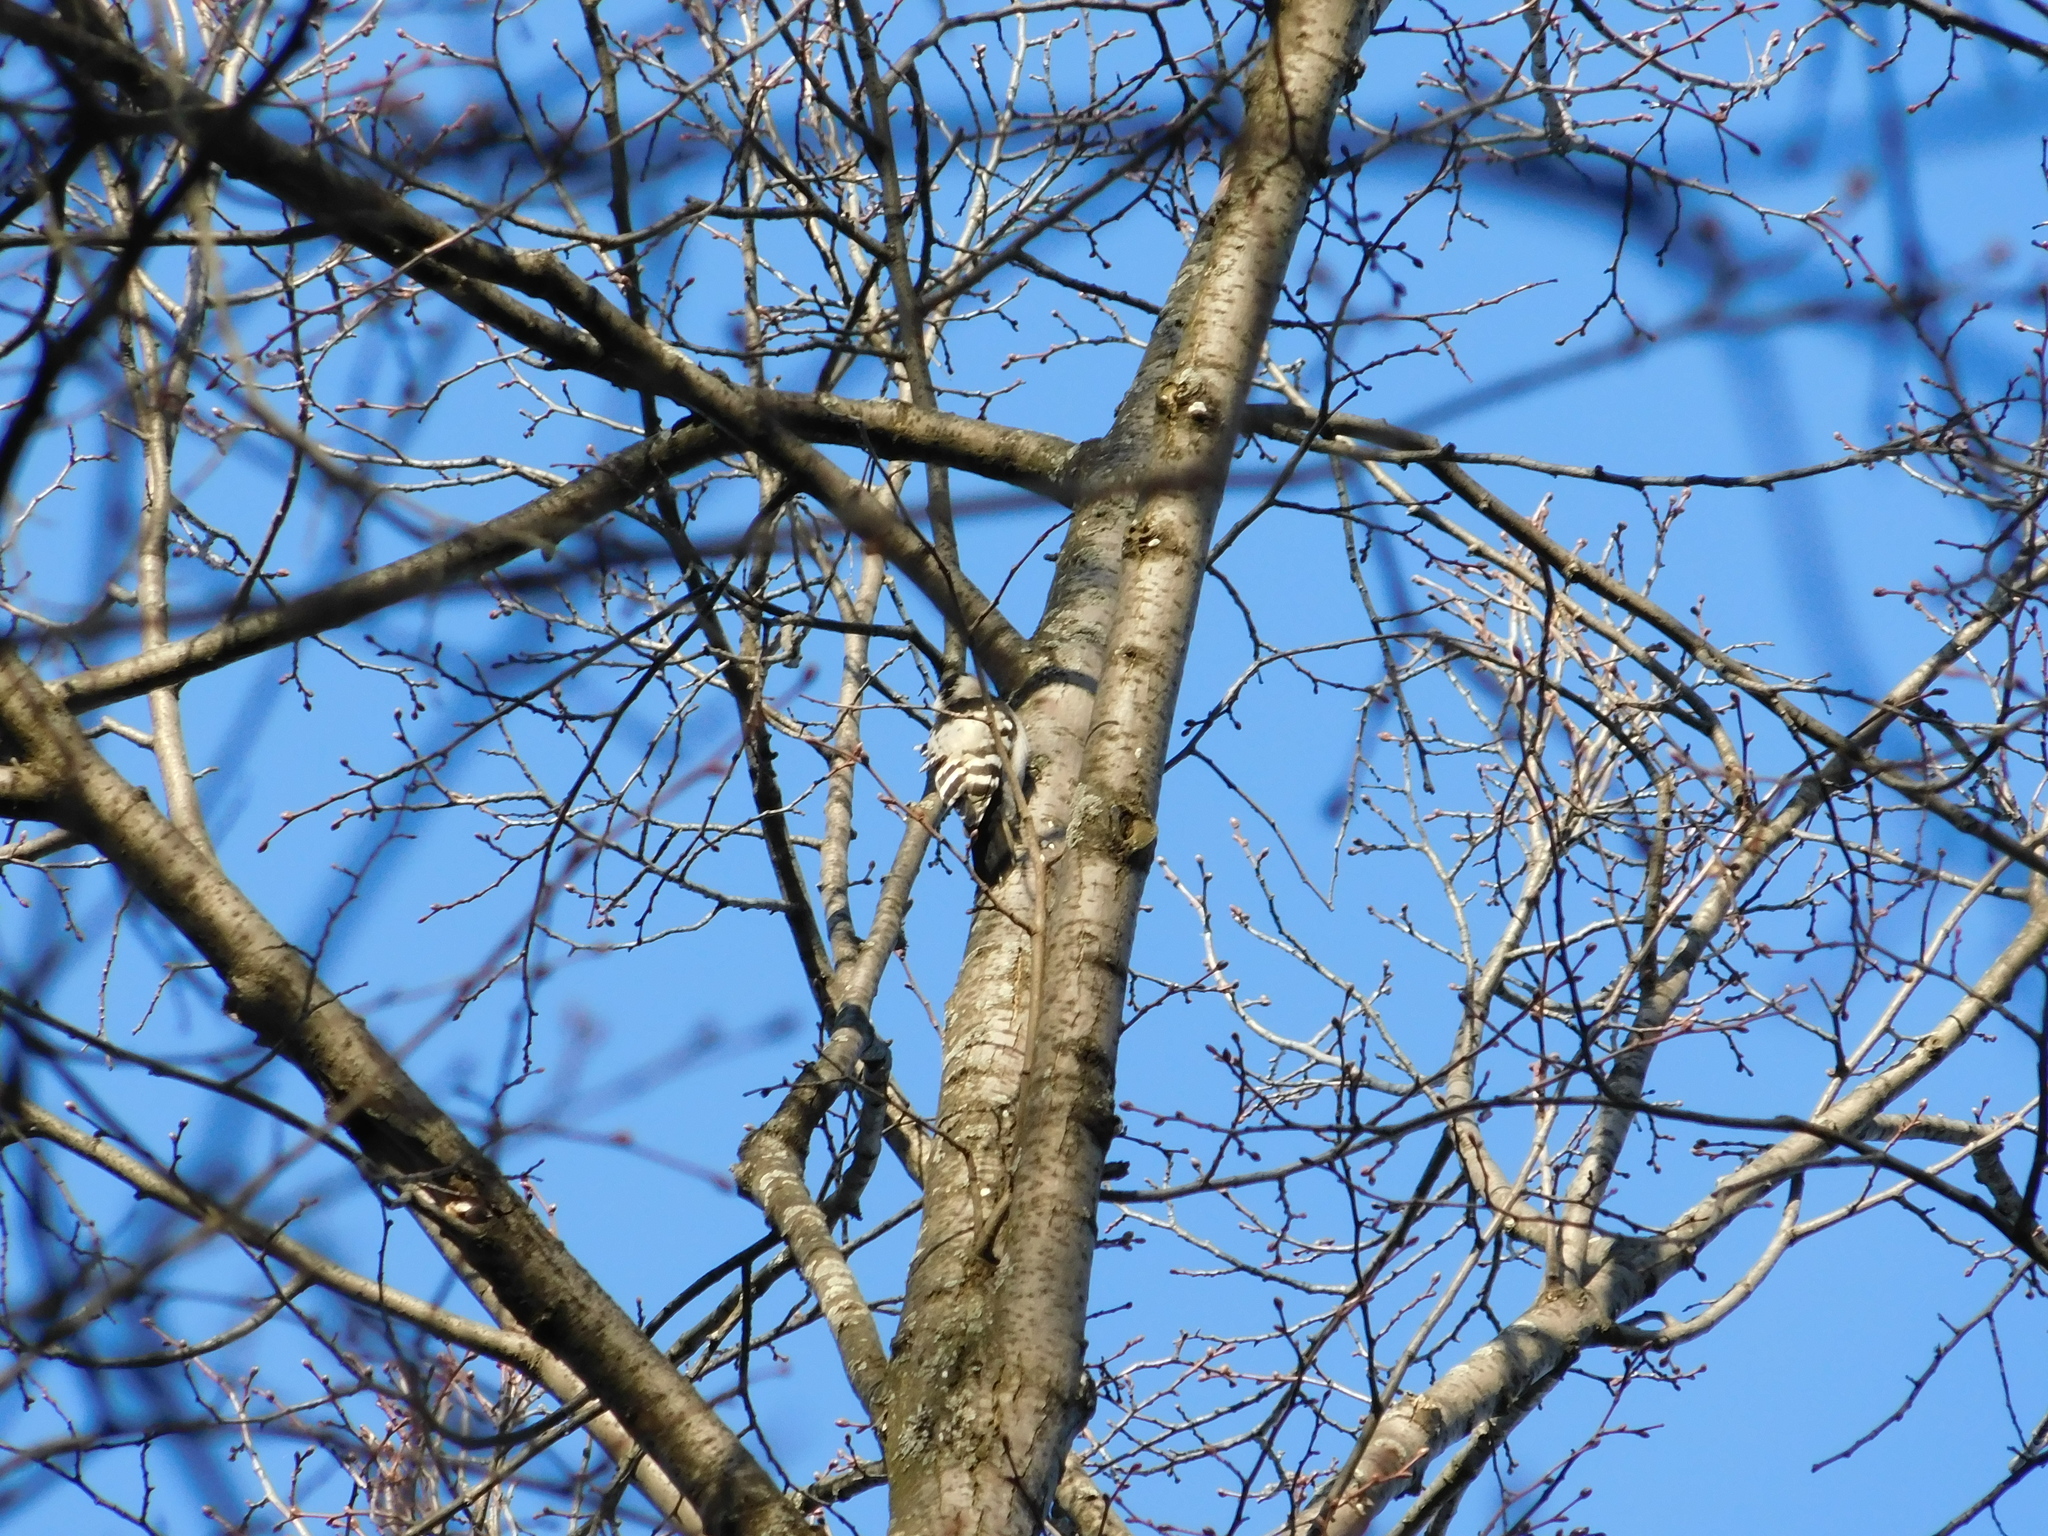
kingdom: Animalia
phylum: Chordata
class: Aves
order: Piciformes
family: Picidae
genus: Dryobates
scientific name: Dryobates minor
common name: Lesser spotted woodpecker
